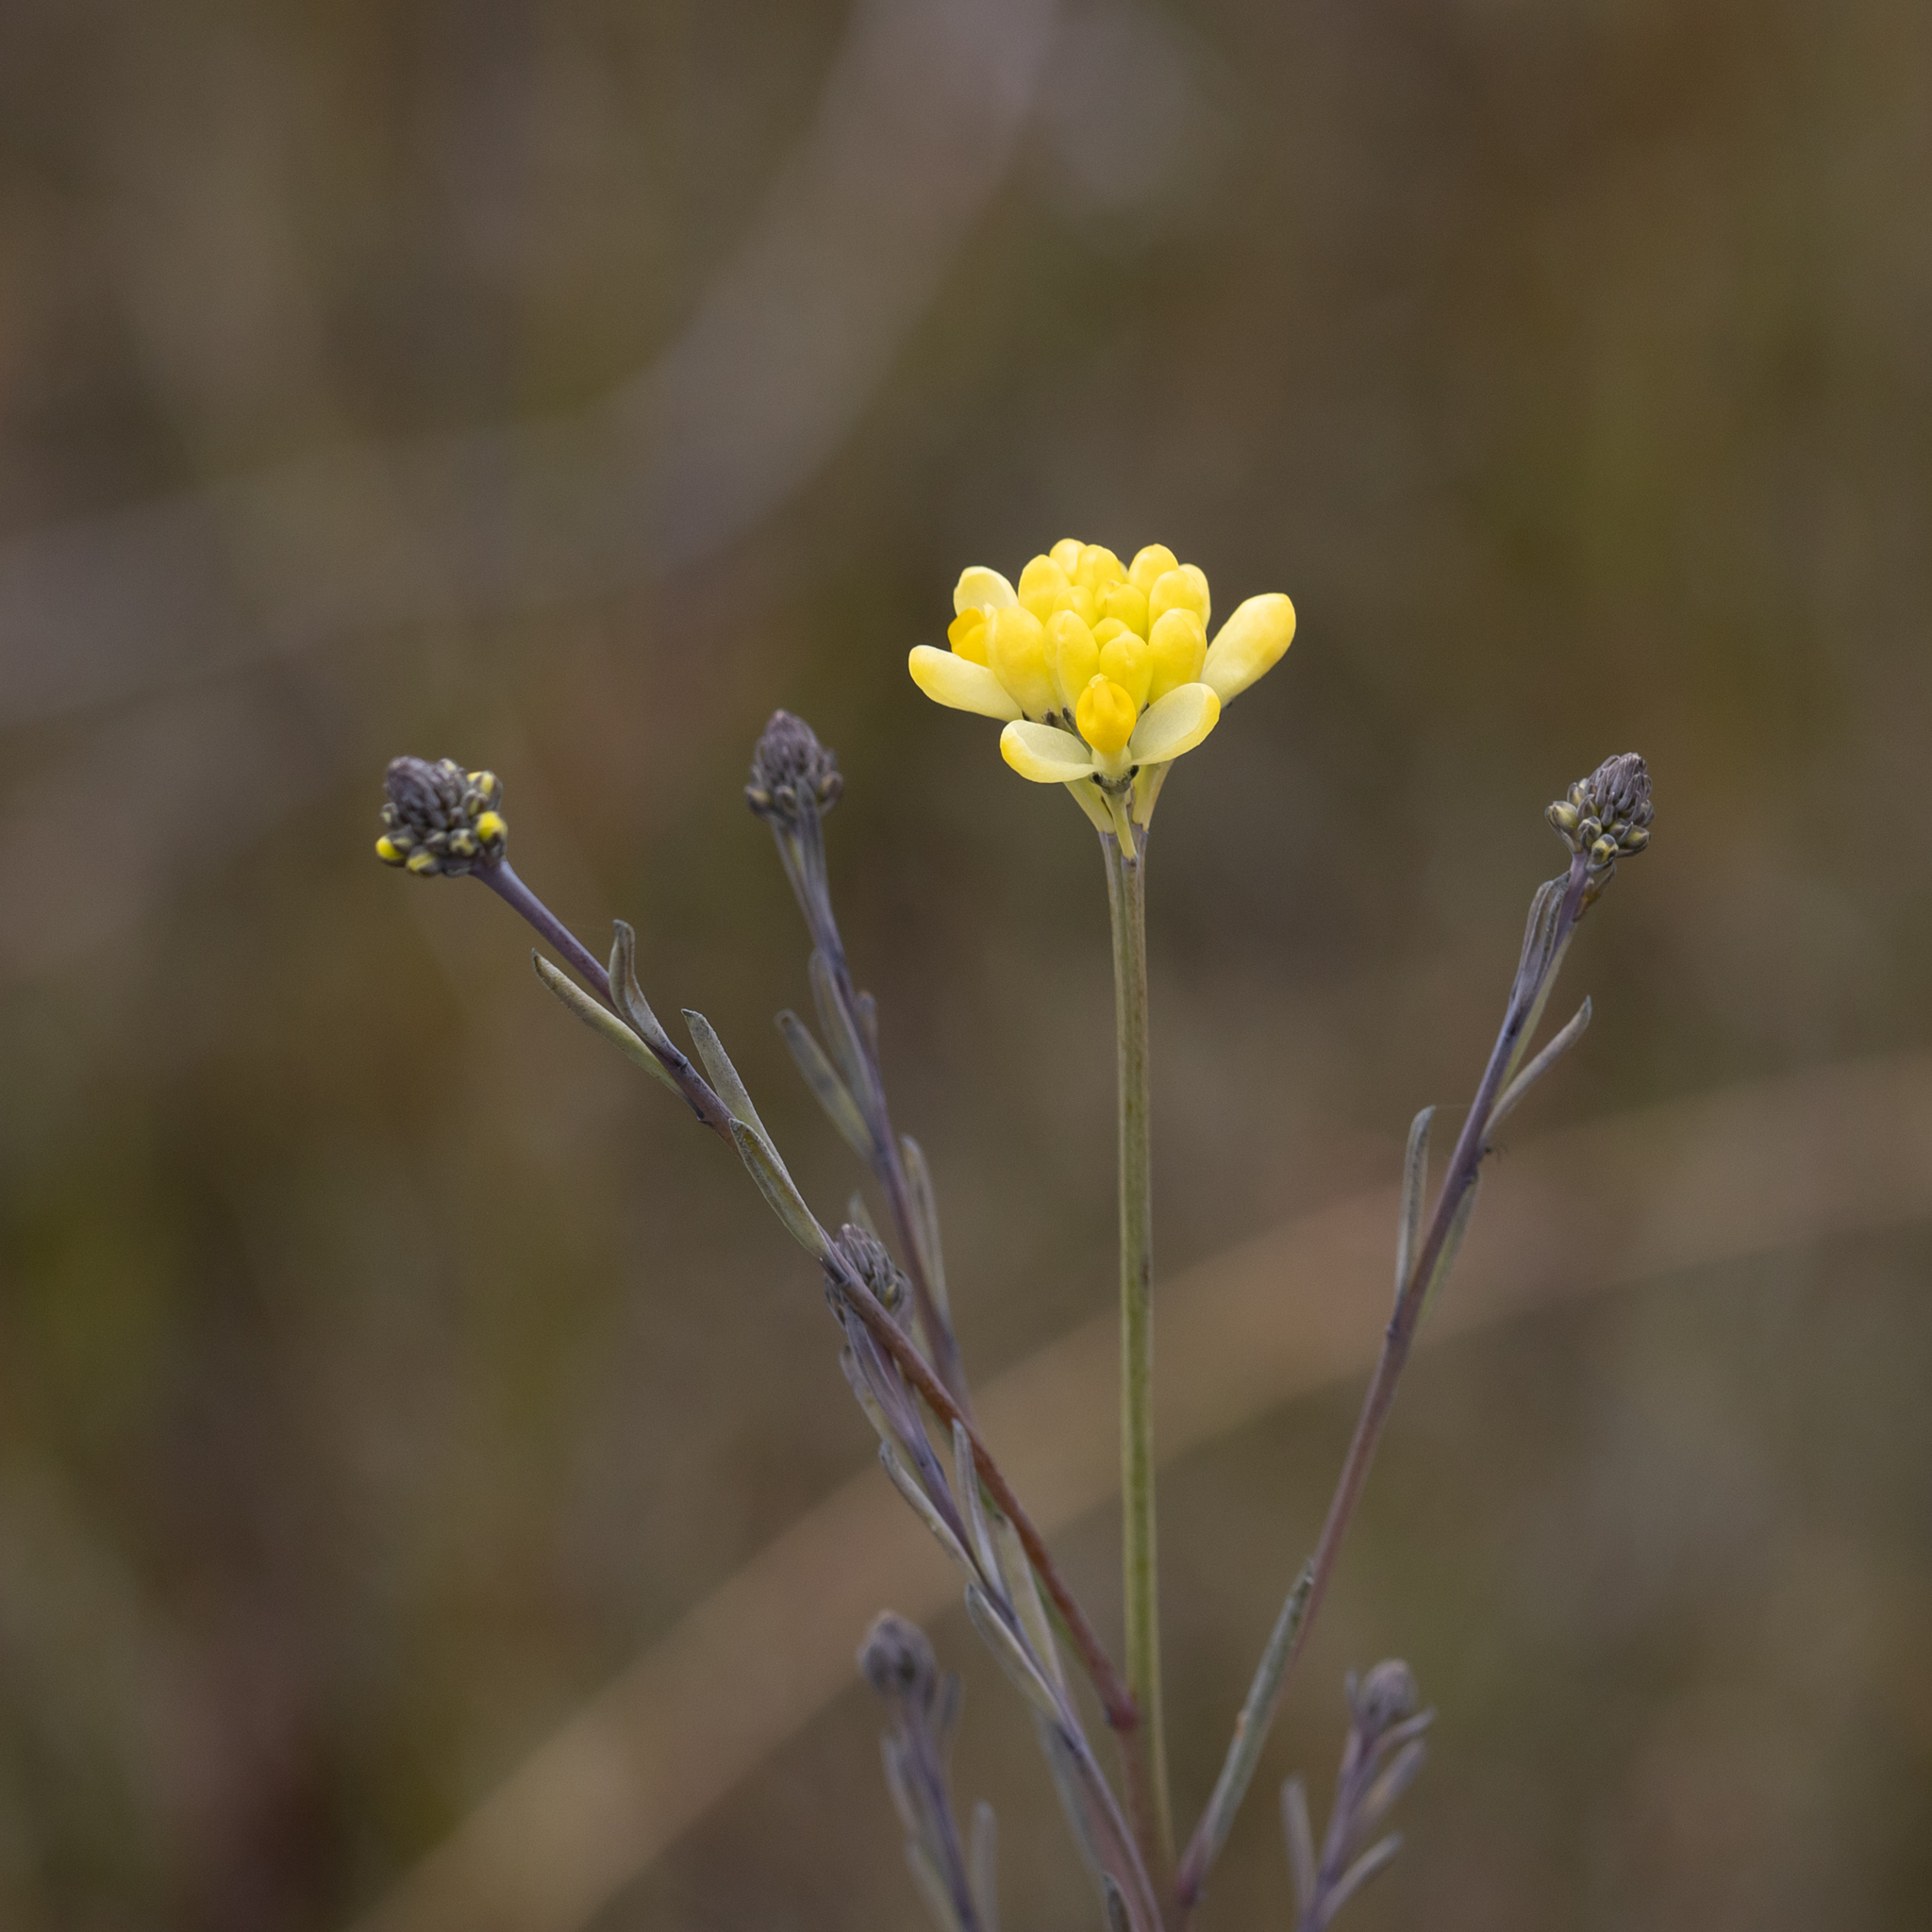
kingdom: Plantae
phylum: Tracheophyta
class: Magnoliopsida
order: Fabales
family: Polygalaceae
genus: Comesperma
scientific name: Comesperma flavum
